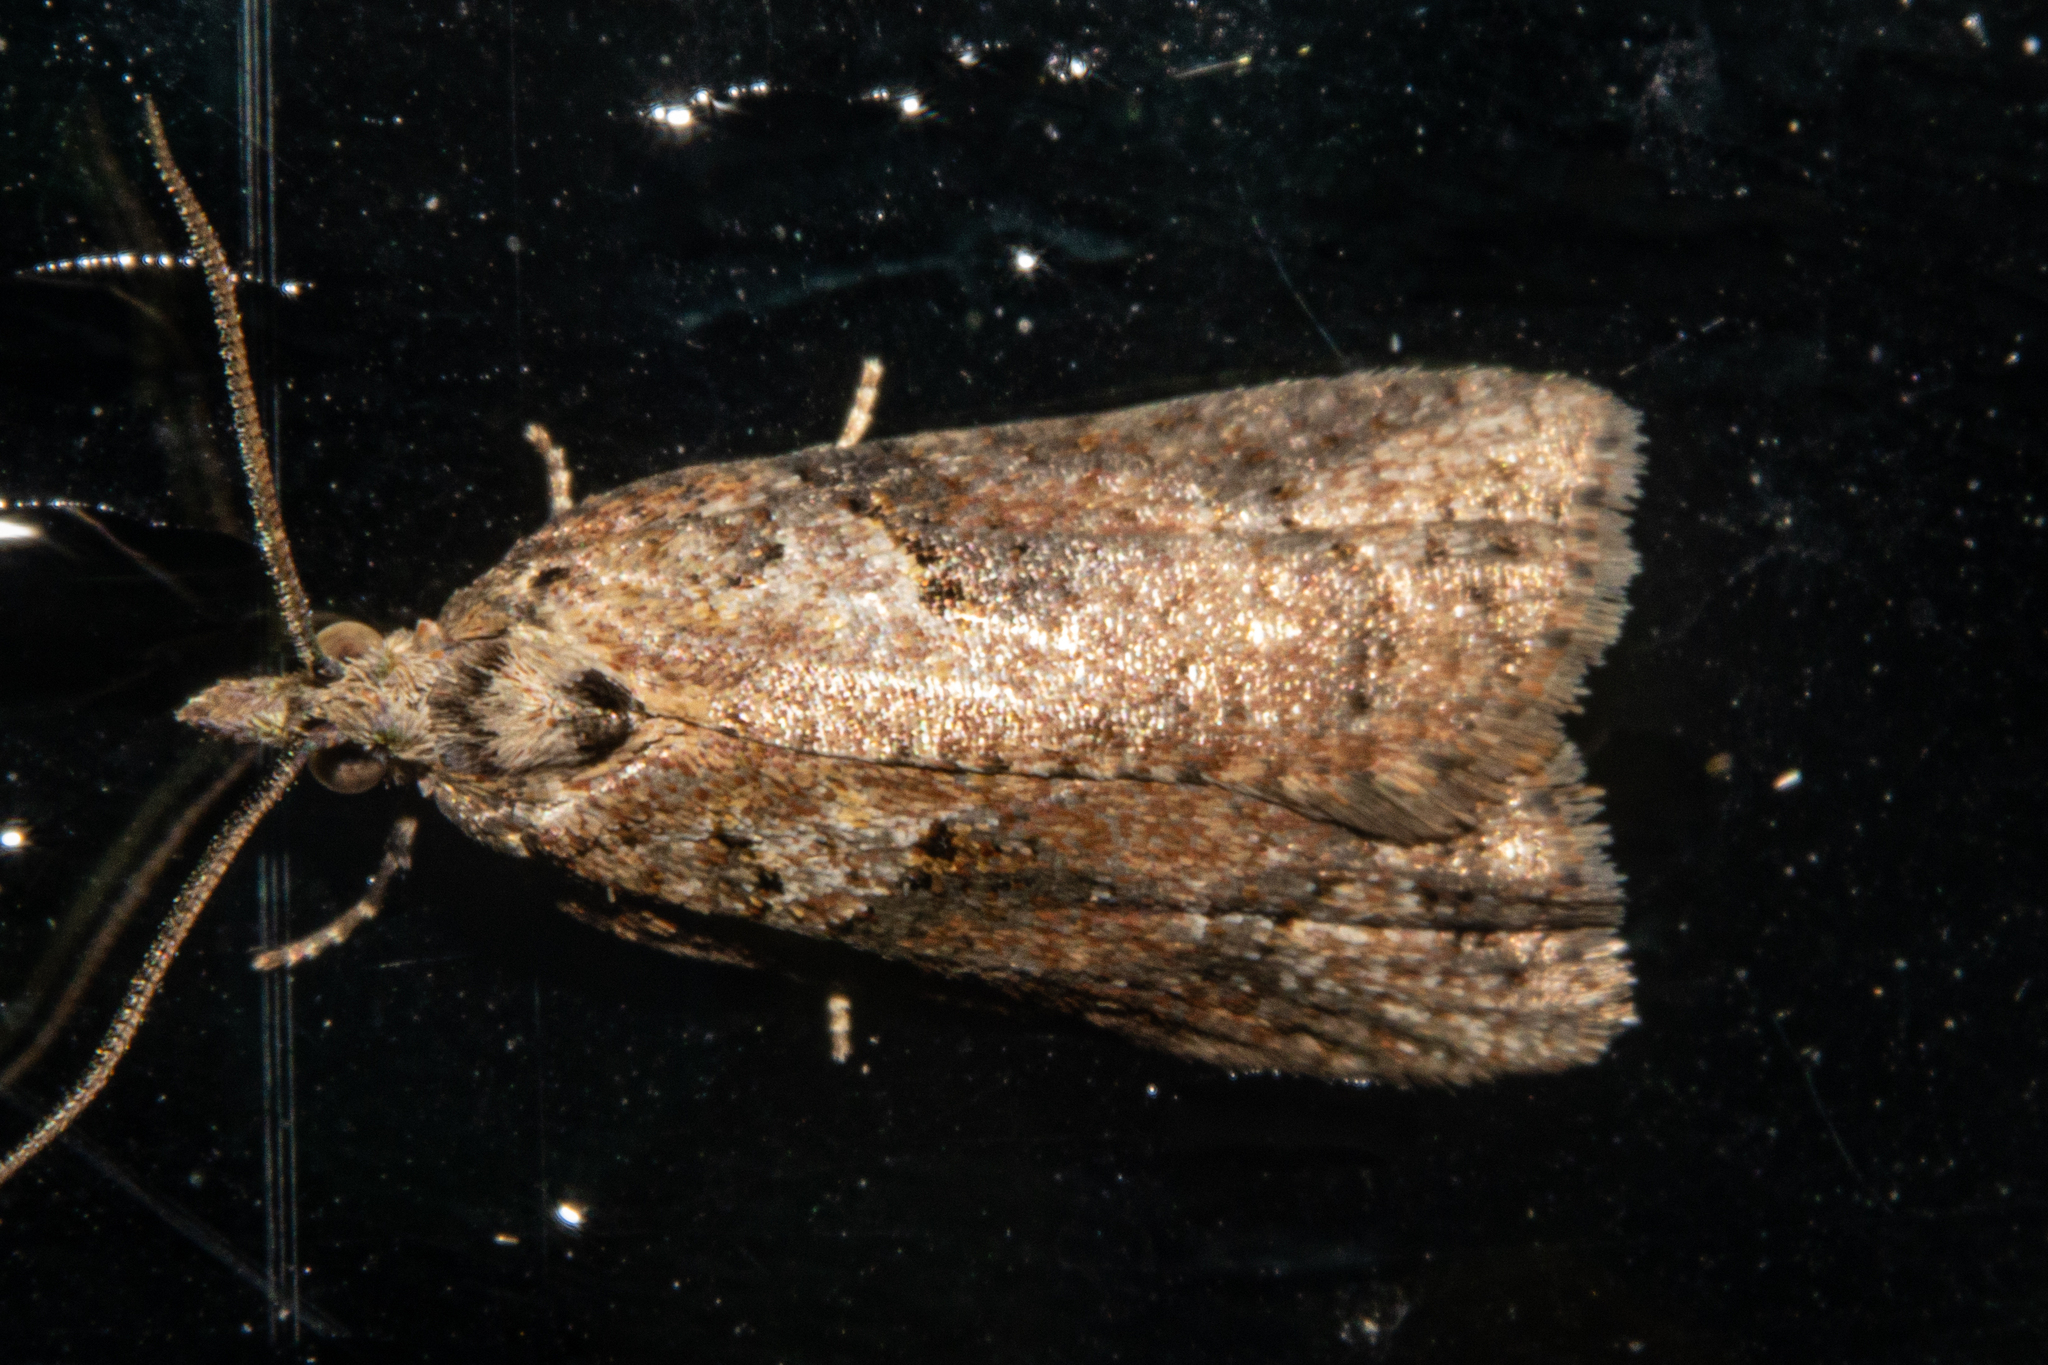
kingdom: Animalia
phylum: Arthropoda
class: Insecta
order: Lepidoptera
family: Tortricidae
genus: Capua
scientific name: Capua semiferana
